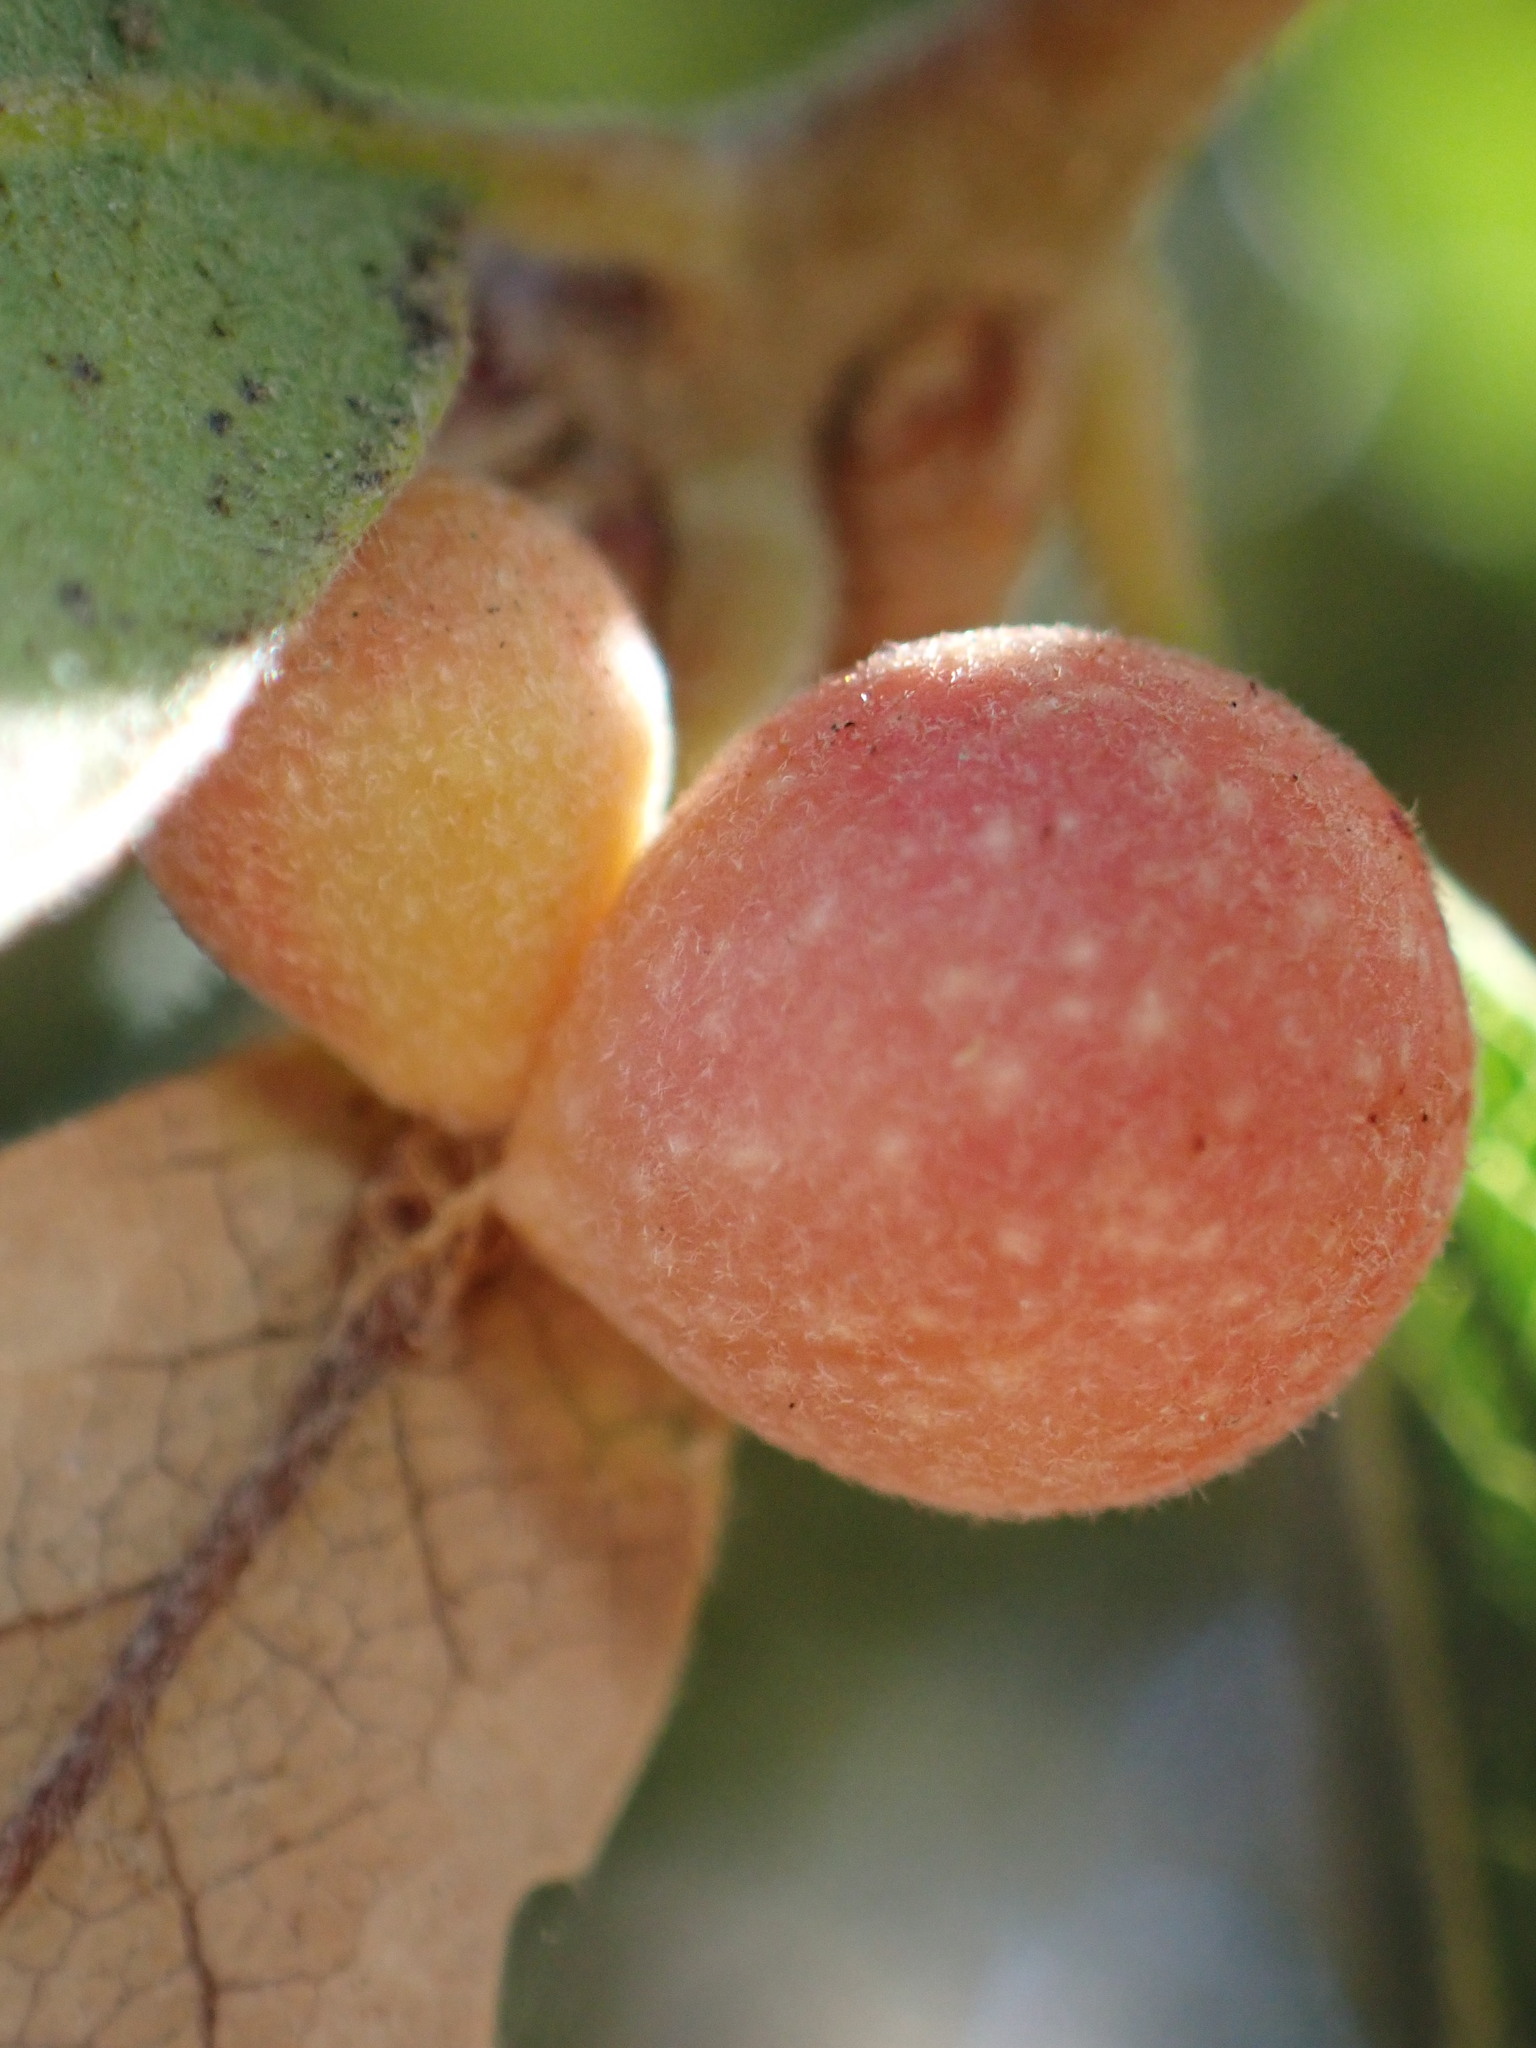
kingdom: Animalia
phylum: Arthropoda
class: Insecta
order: Hymenoptera
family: Cynipidae
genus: Andricus
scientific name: Andricus
